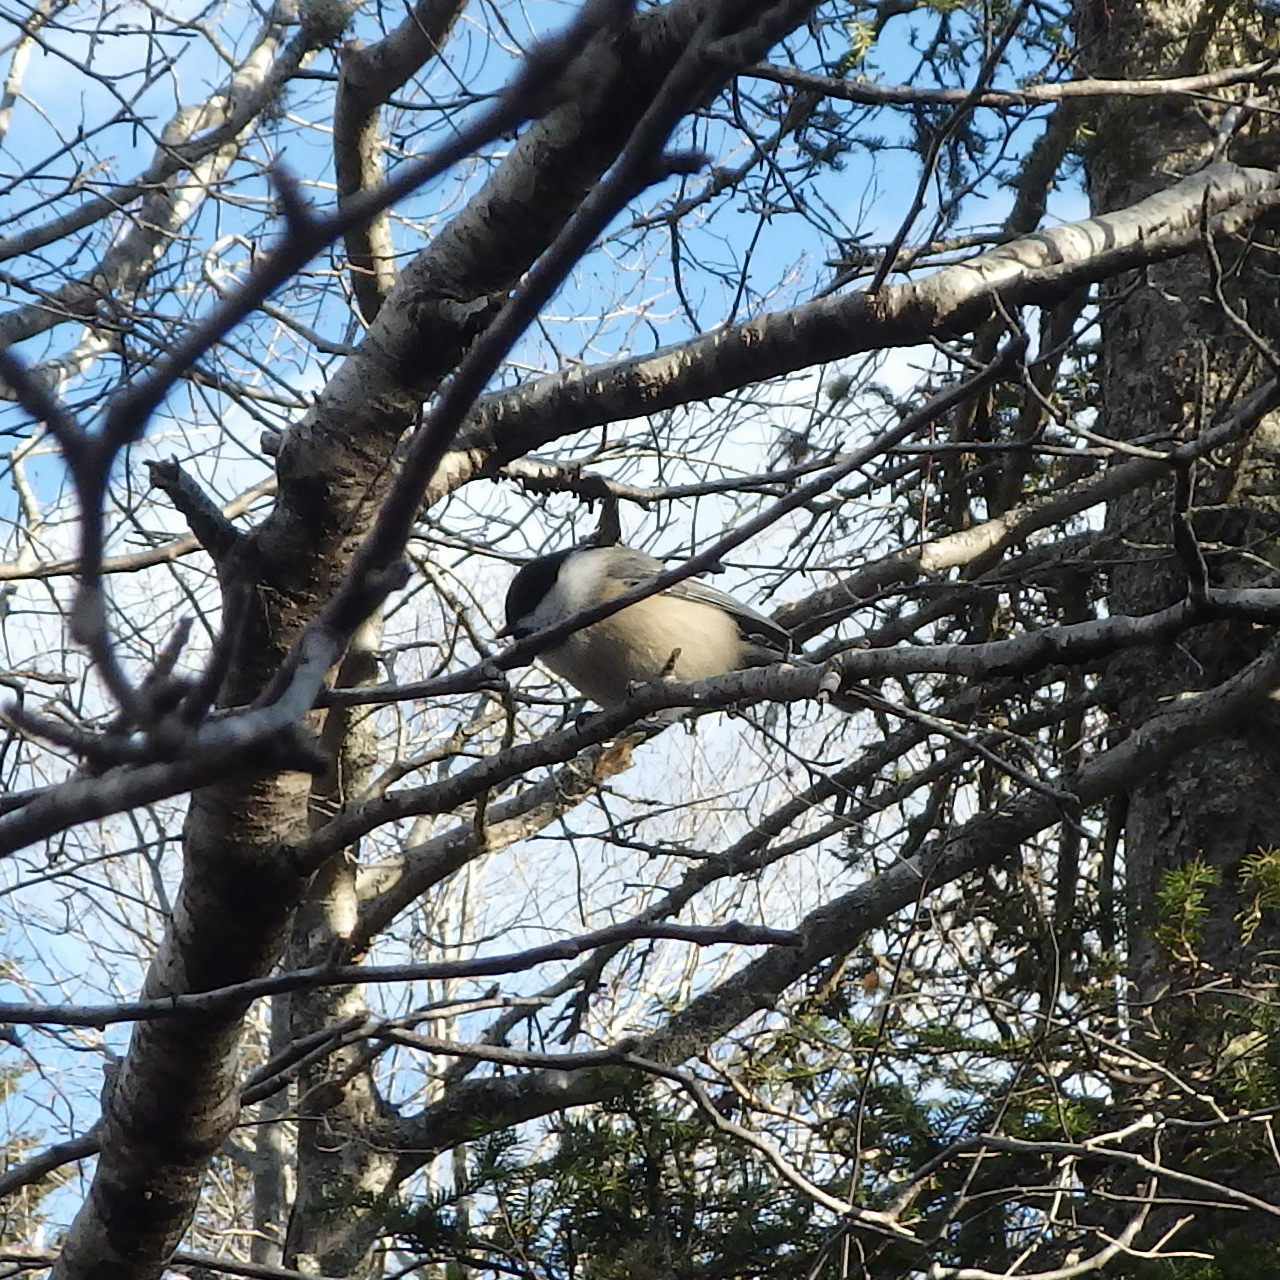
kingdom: Animalia
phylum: Chordata
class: Aves
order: Passeriformes
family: Paridae
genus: Poecile
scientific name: Poecile atricapillus
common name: Black-capped chickadee
